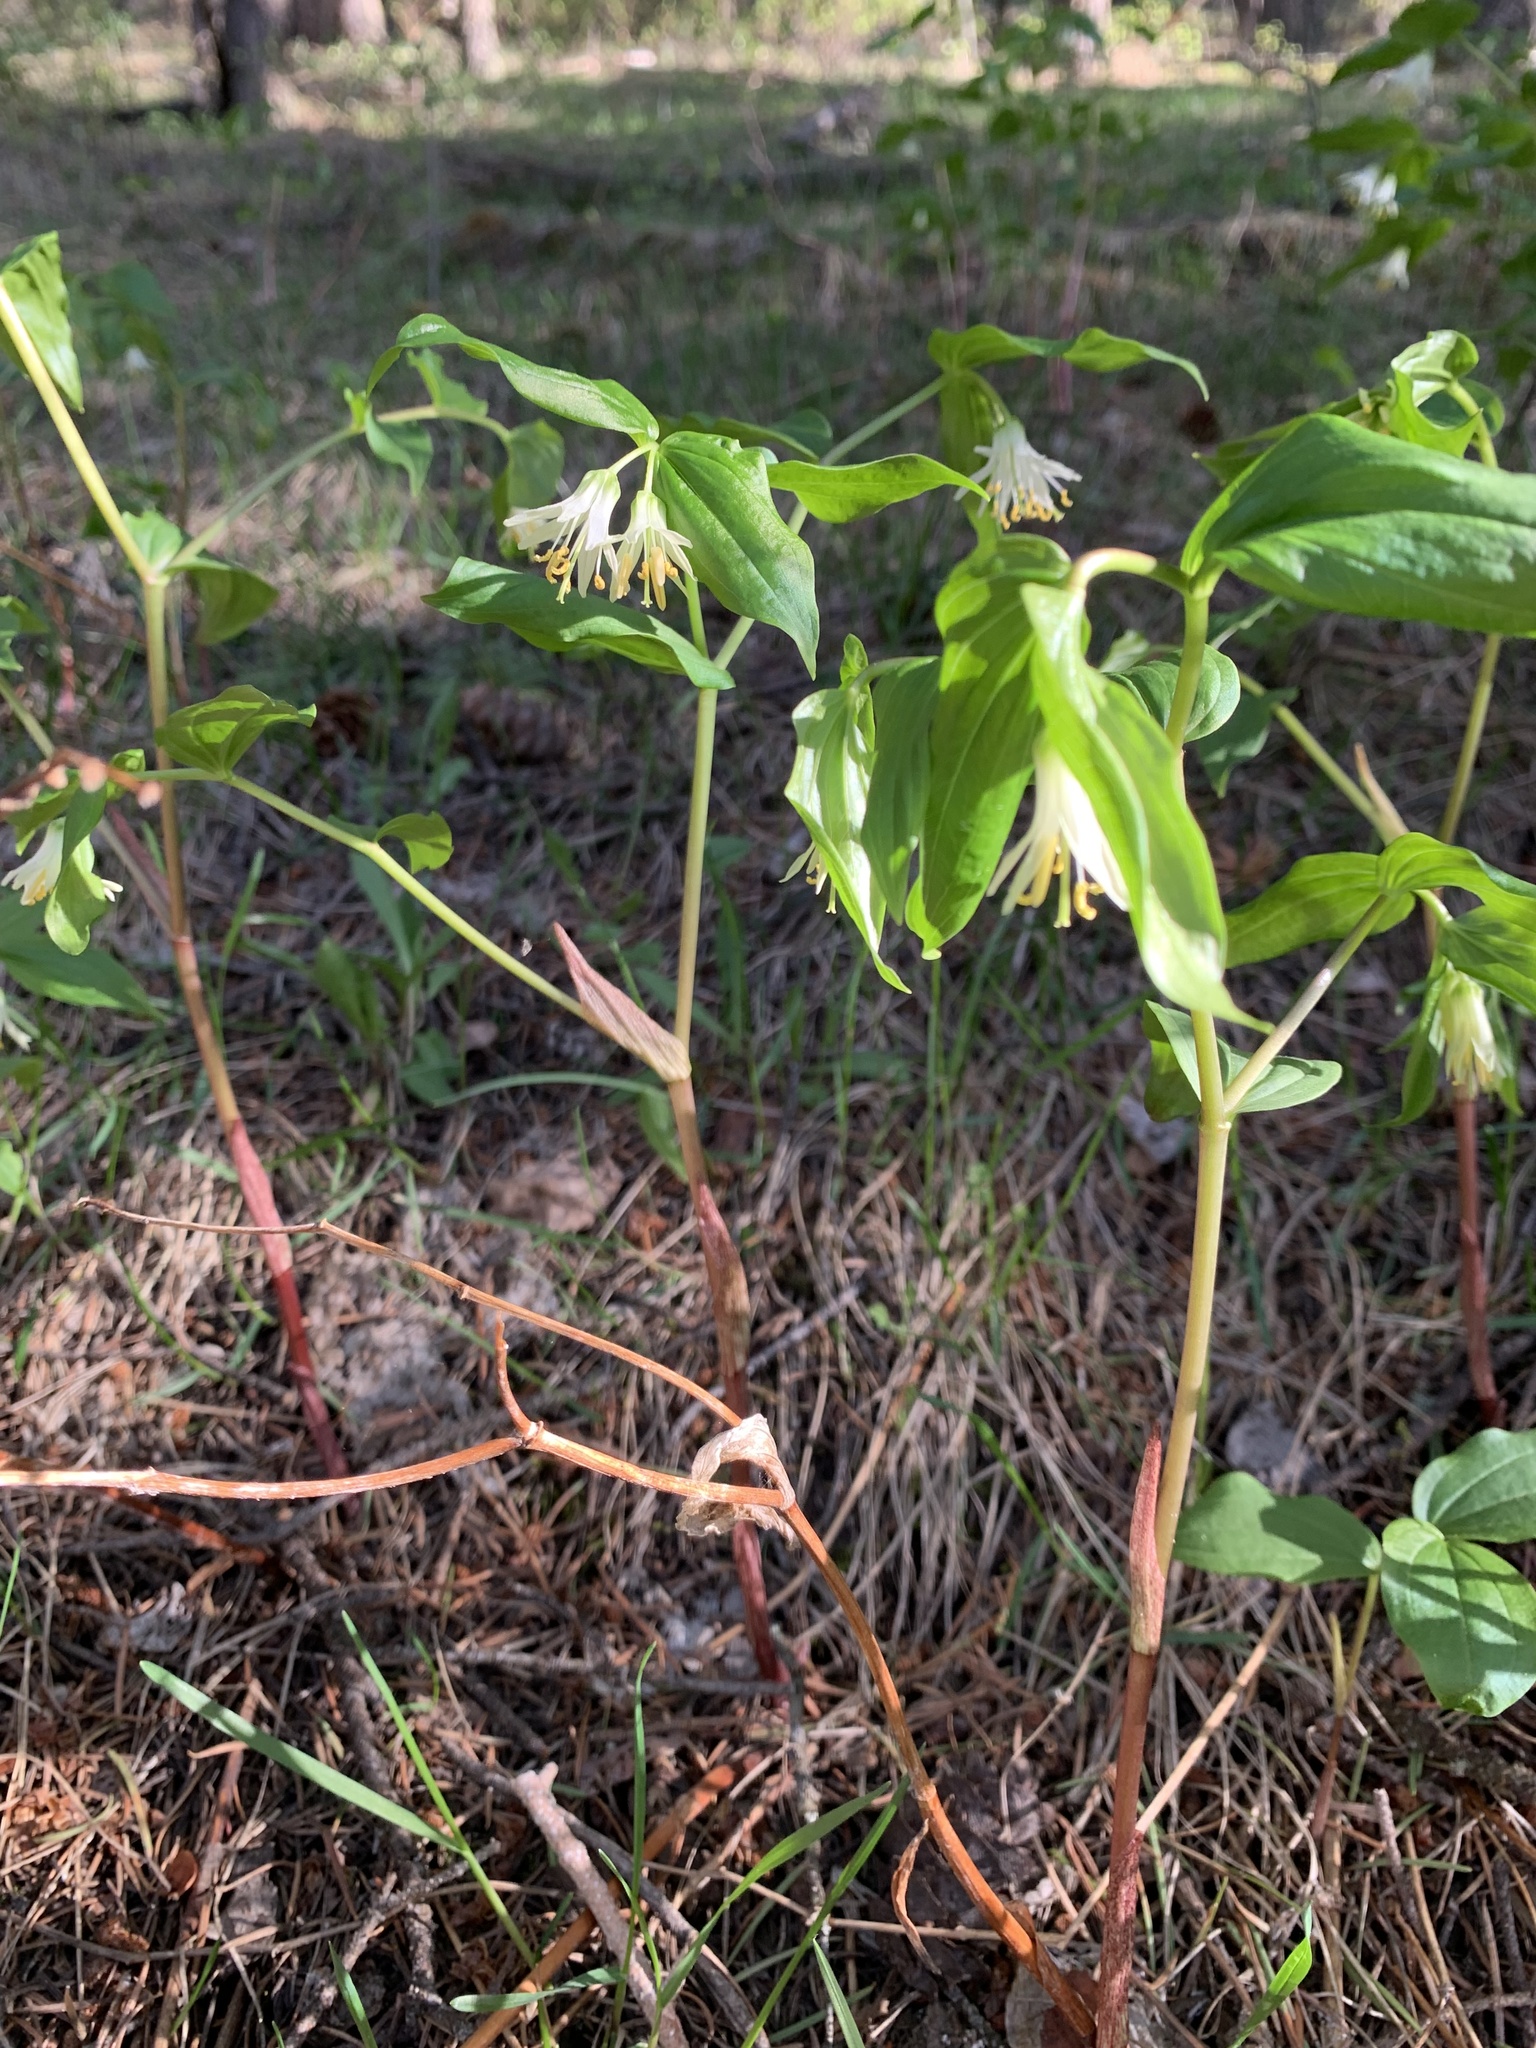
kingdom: Plantae
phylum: Tracheophyta
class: Liliopsida
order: Liliales
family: Liliaceae
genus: Prosartes
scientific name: Prosartes trachycarpa
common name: Rough-fruit fairy-bells
